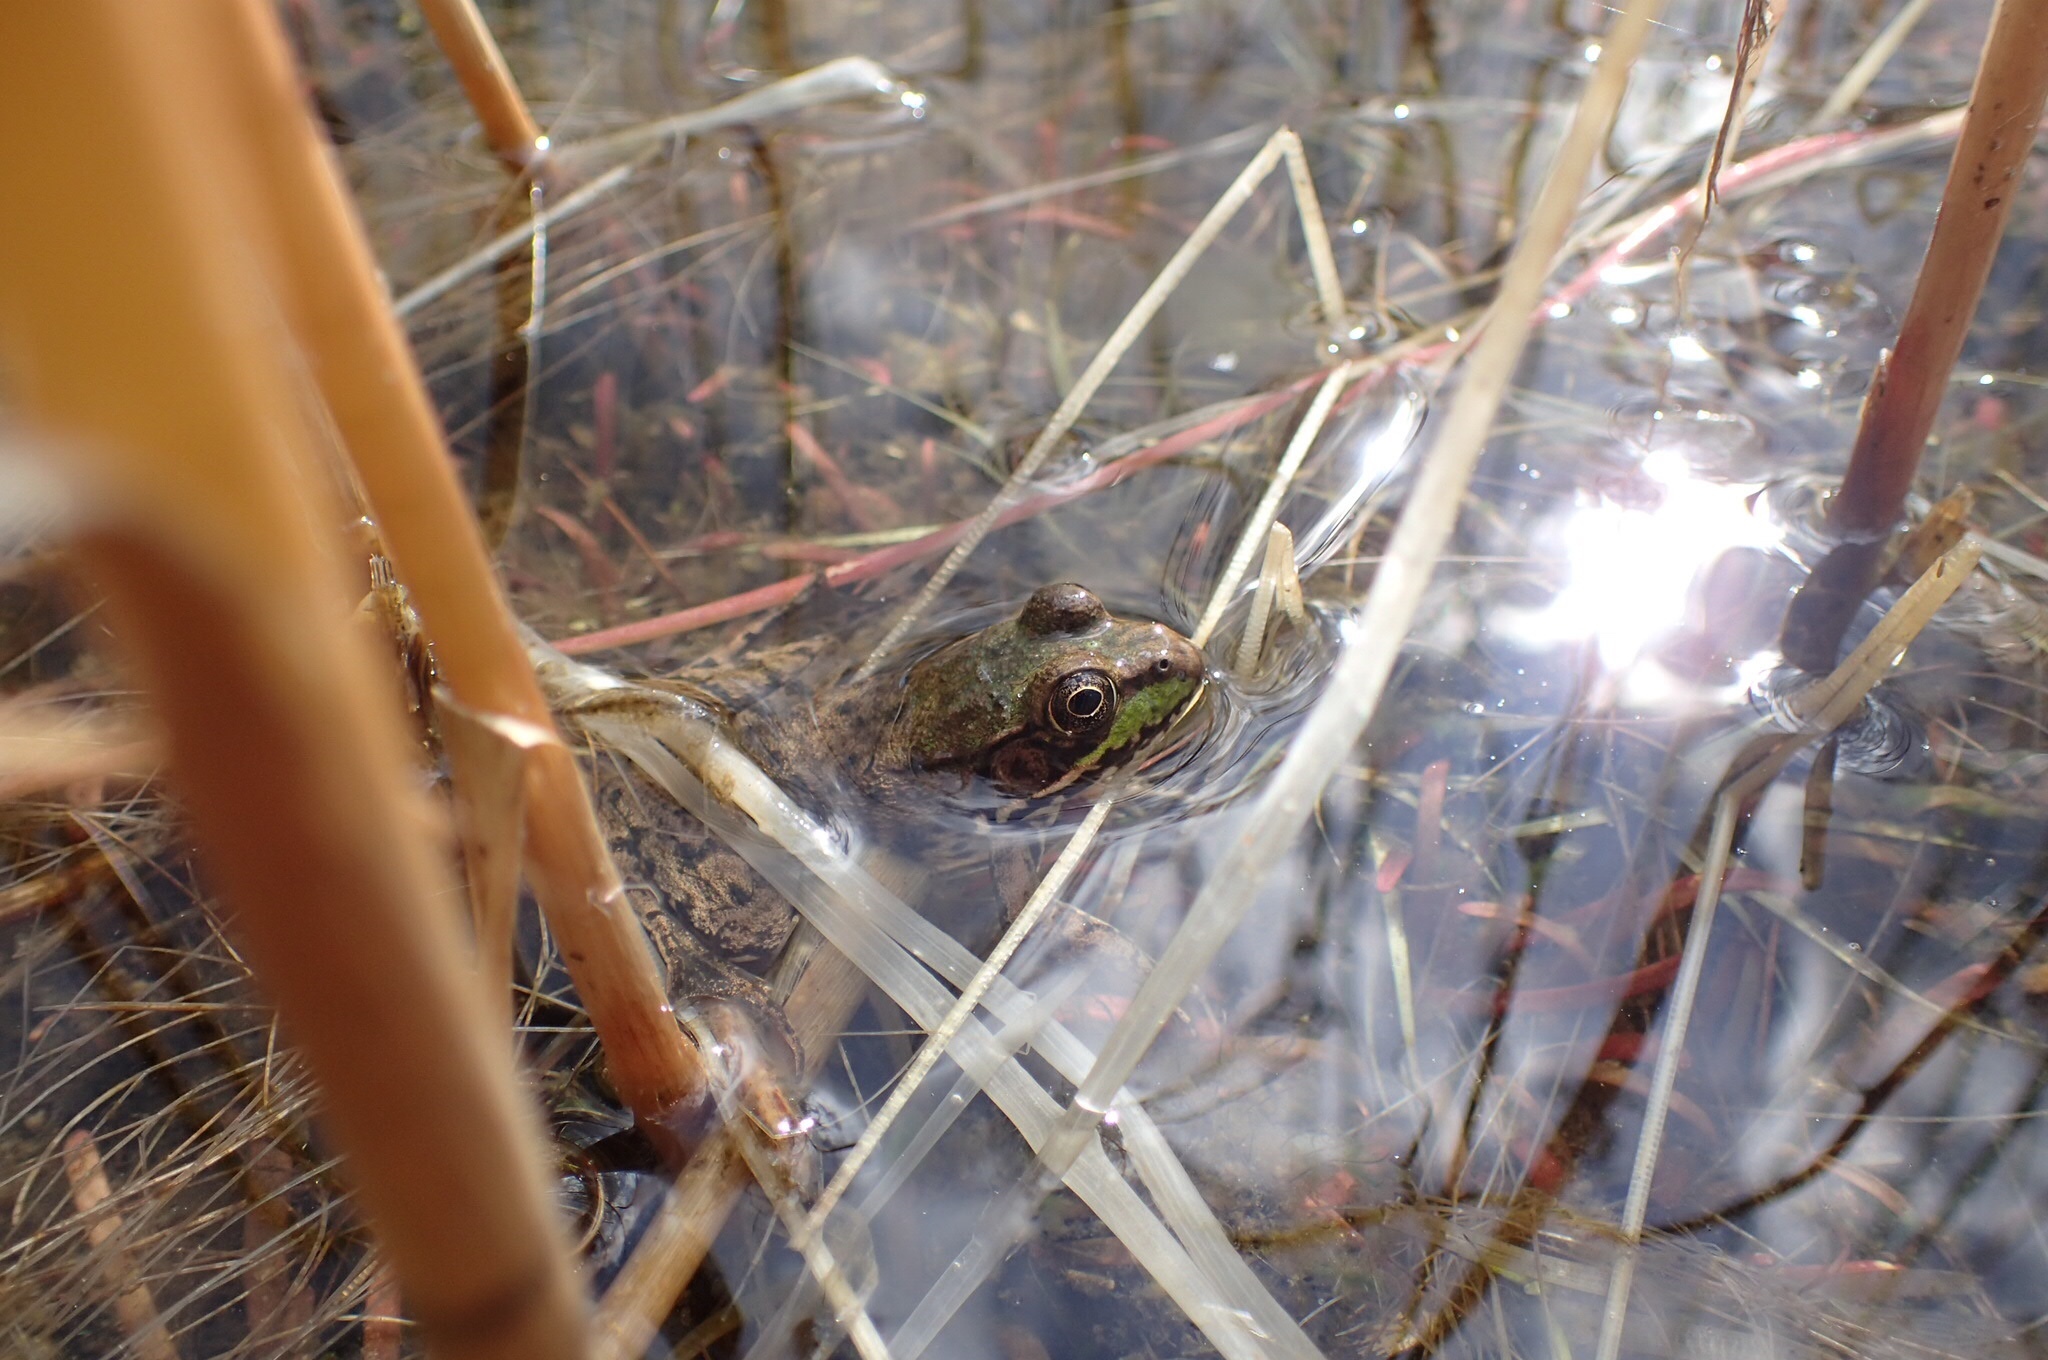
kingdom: Animalia
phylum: Chordata
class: Amphibia
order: Anura
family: Ranidae
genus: Lithobates
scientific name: Lithobates clamitans
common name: Green frog
